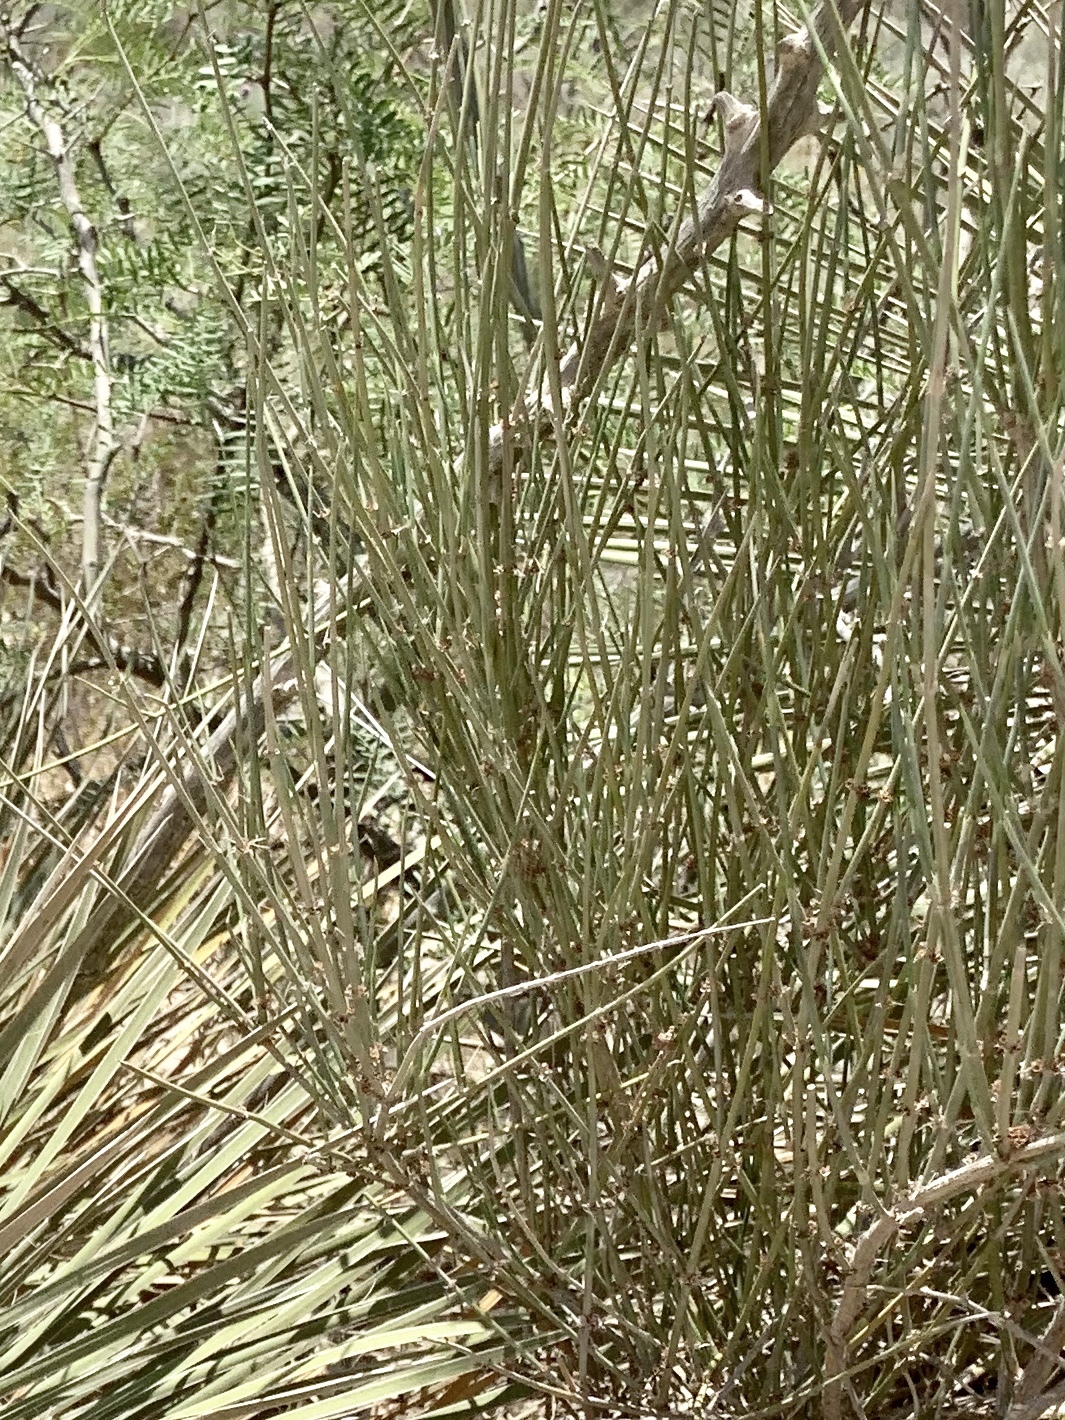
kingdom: Plantae
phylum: Tracheophyta
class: Gnetopsida
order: Ephedrales
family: Ephedraceae
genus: Ephedra
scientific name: Ephedra trifurca
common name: Mexican-tea
